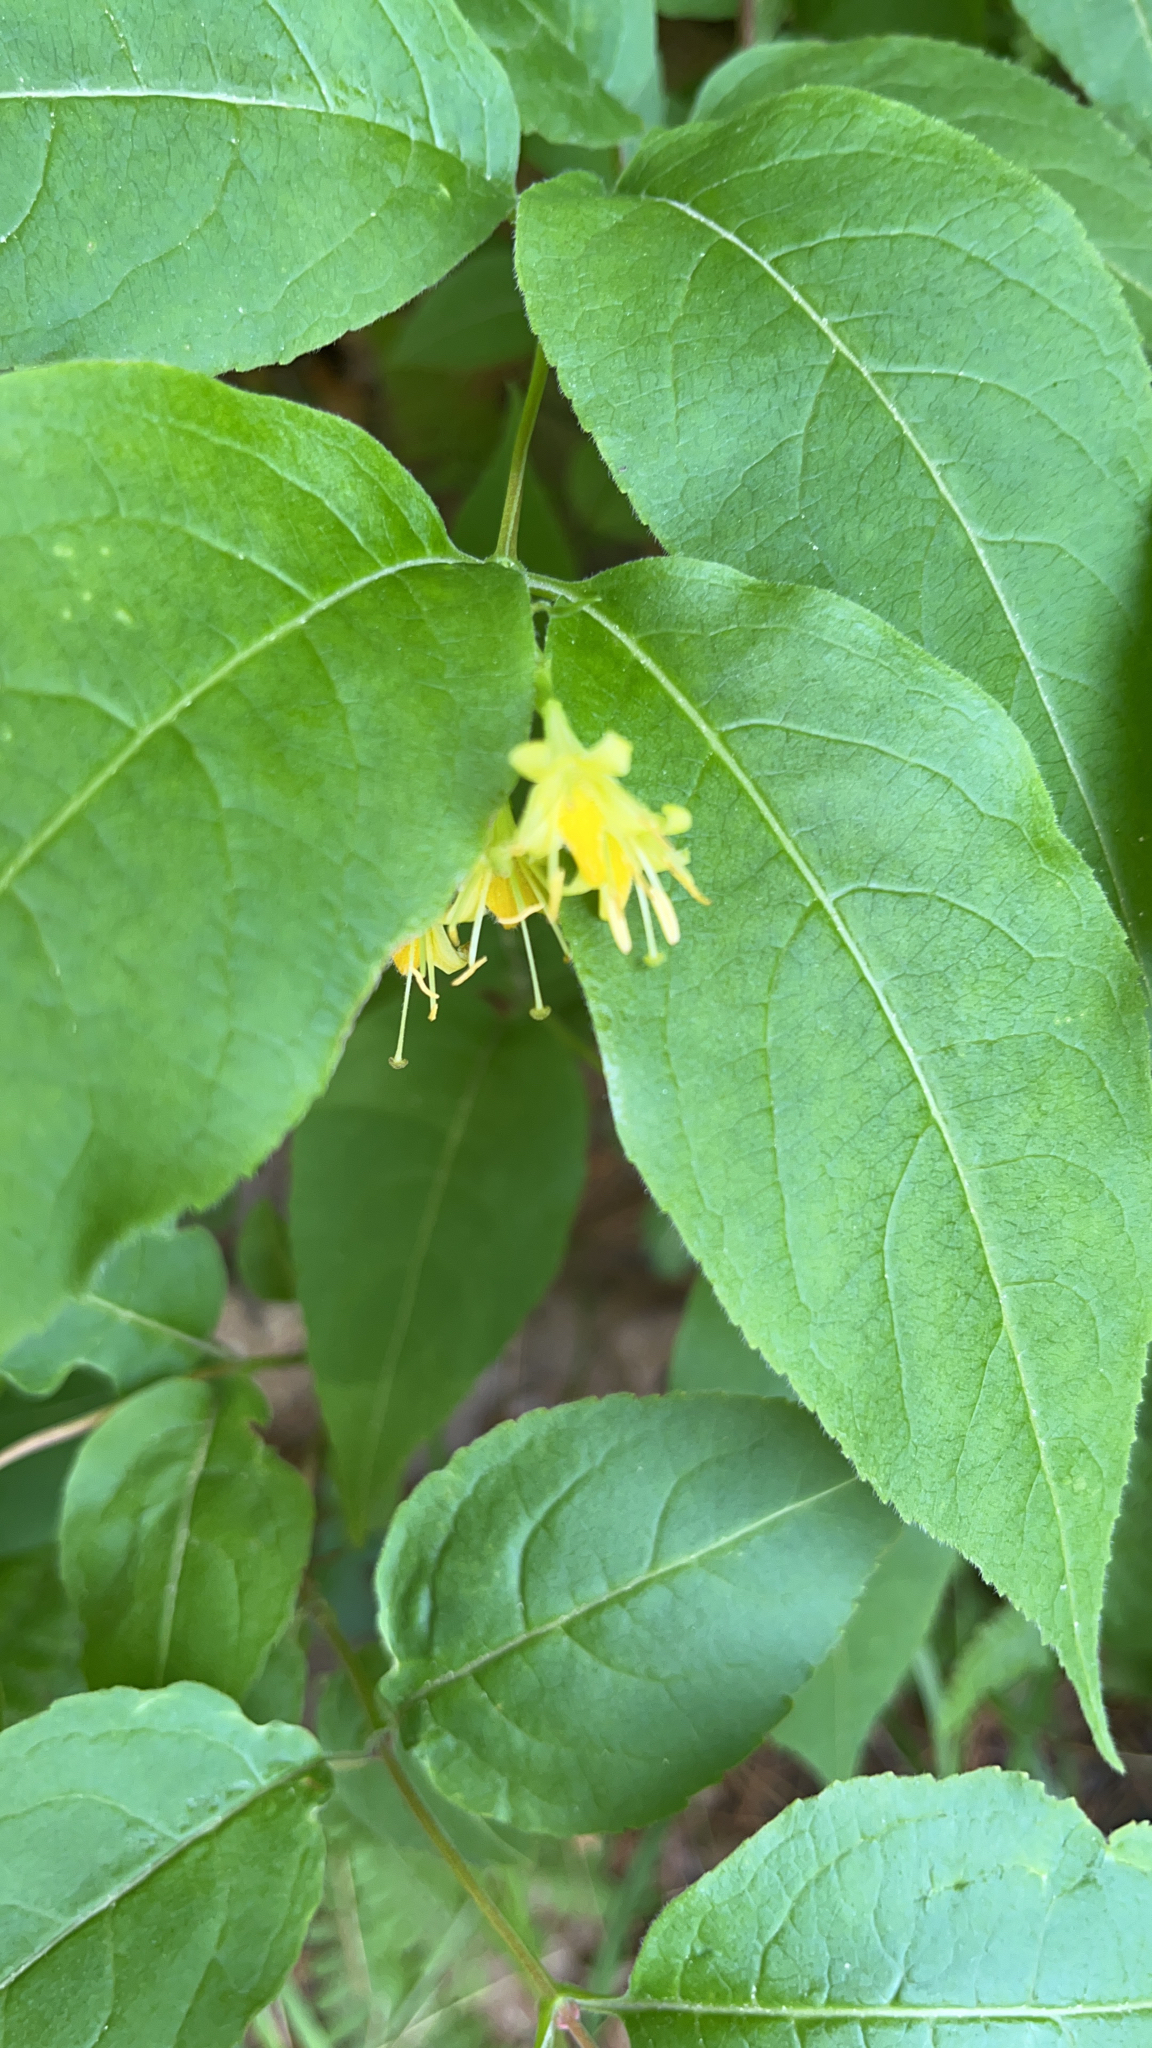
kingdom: Plantae
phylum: Tracheophyta
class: Magnoliopsida
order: Dipsacales
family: Caprifoliaceae
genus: Diervilla
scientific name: Diervilla lonicera
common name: Bush-honeysuckle
